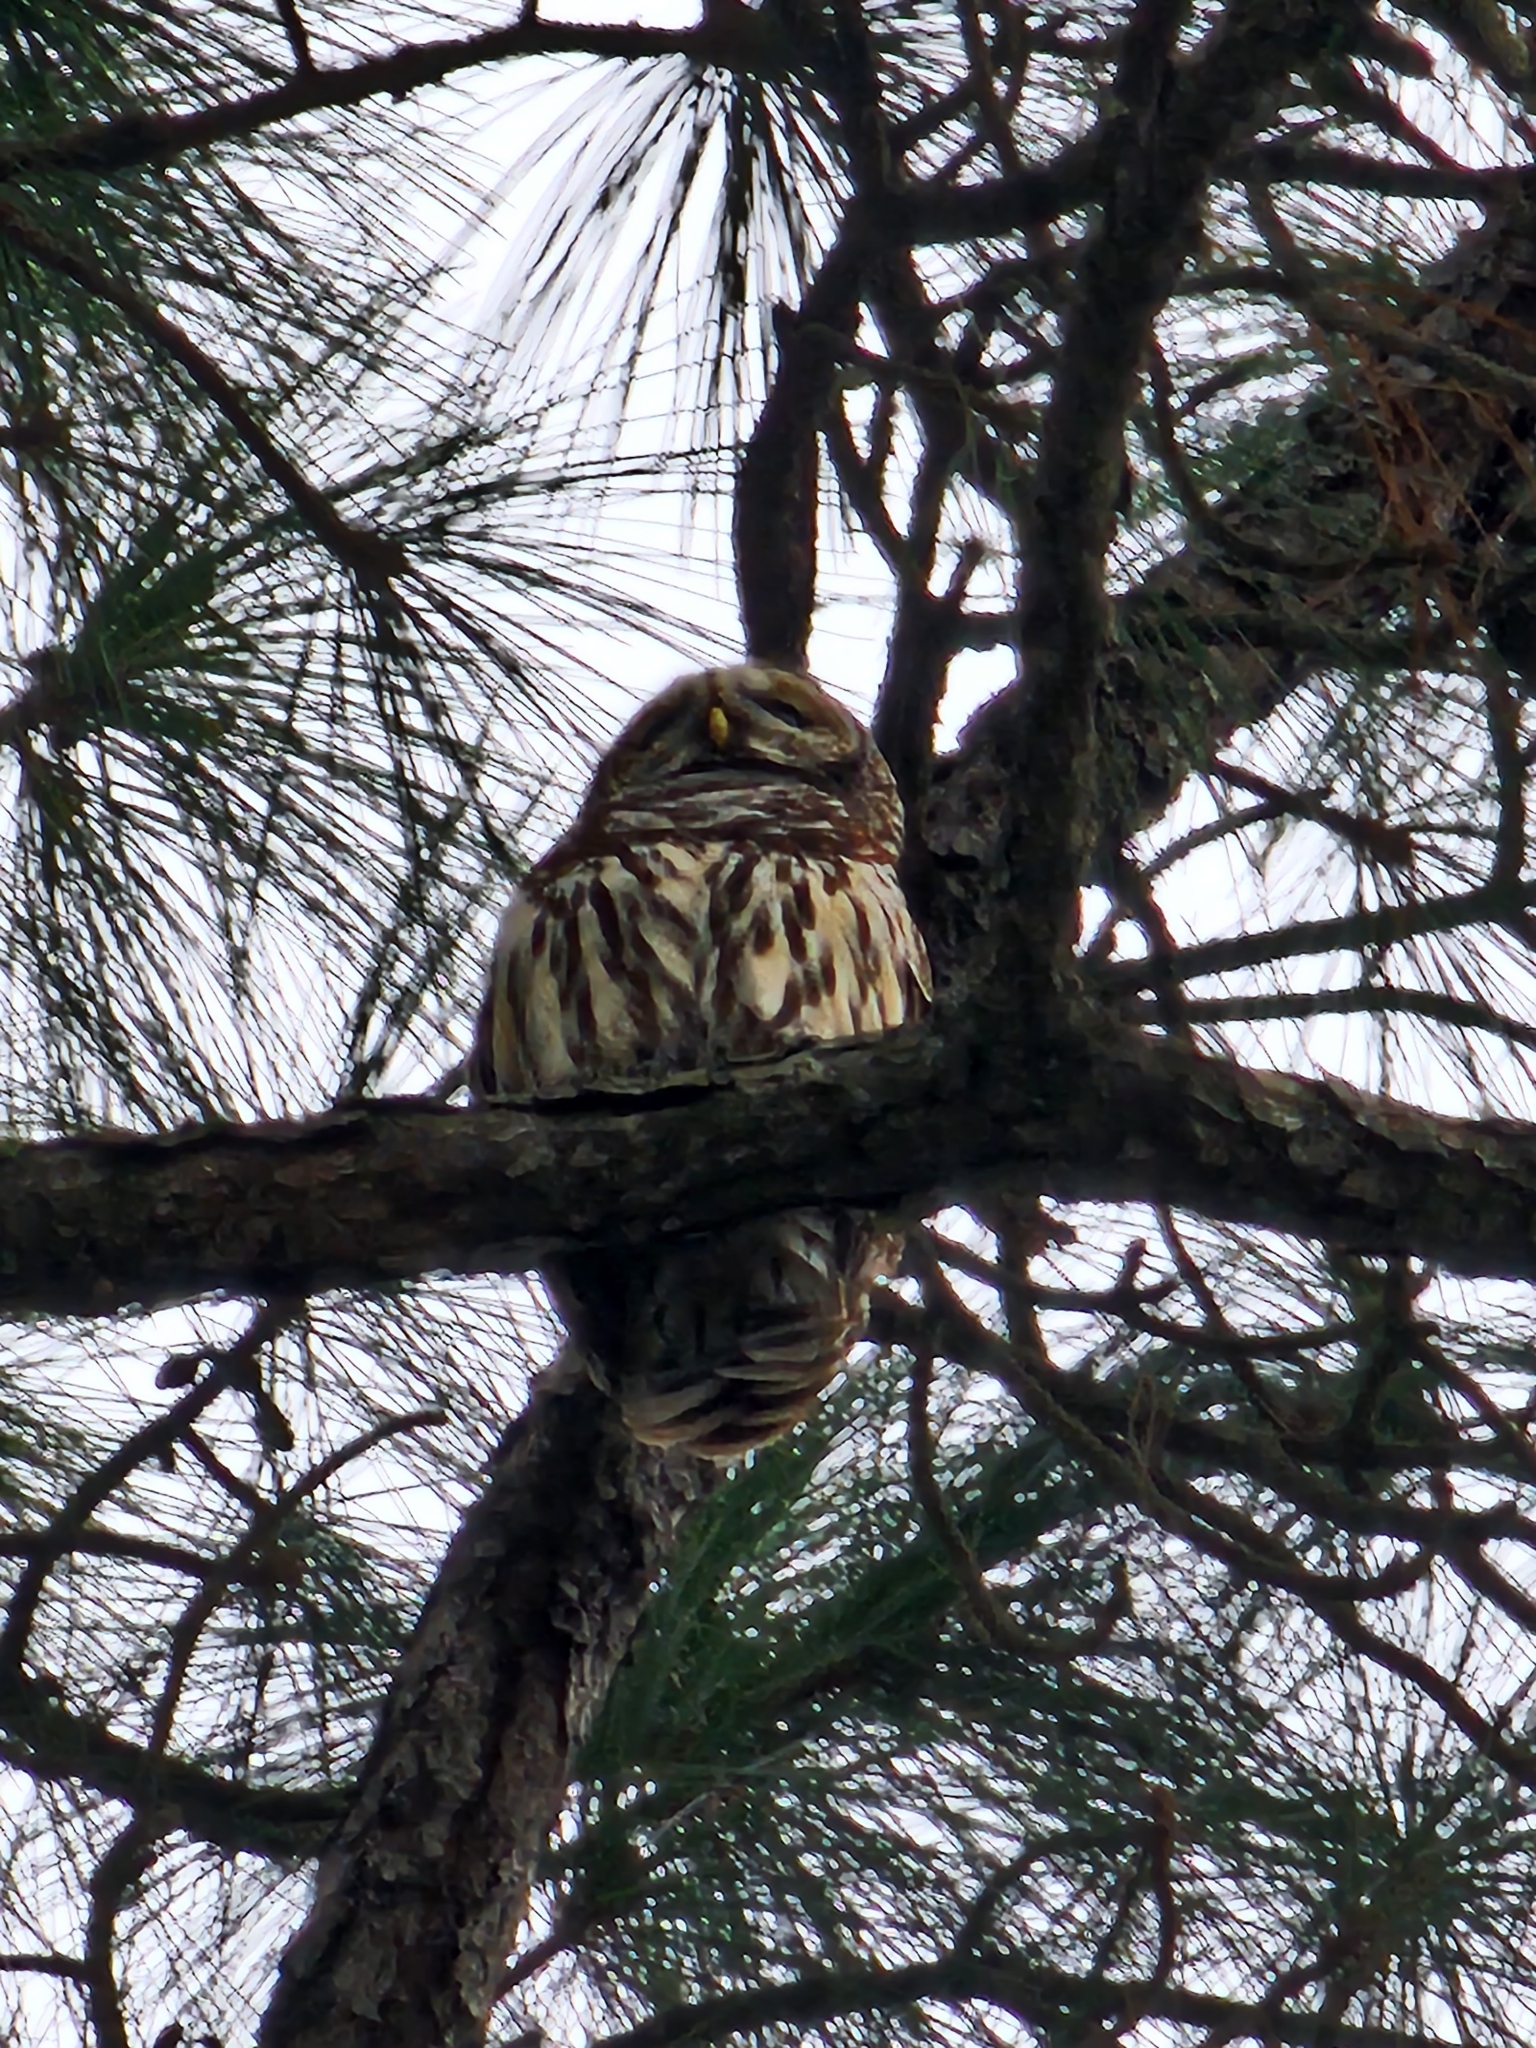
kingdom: Animalia
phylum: Chordata
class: Aves
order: Strigiformes
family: Strigidae
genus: Strix
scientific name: Strix varia
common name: Barred owl
